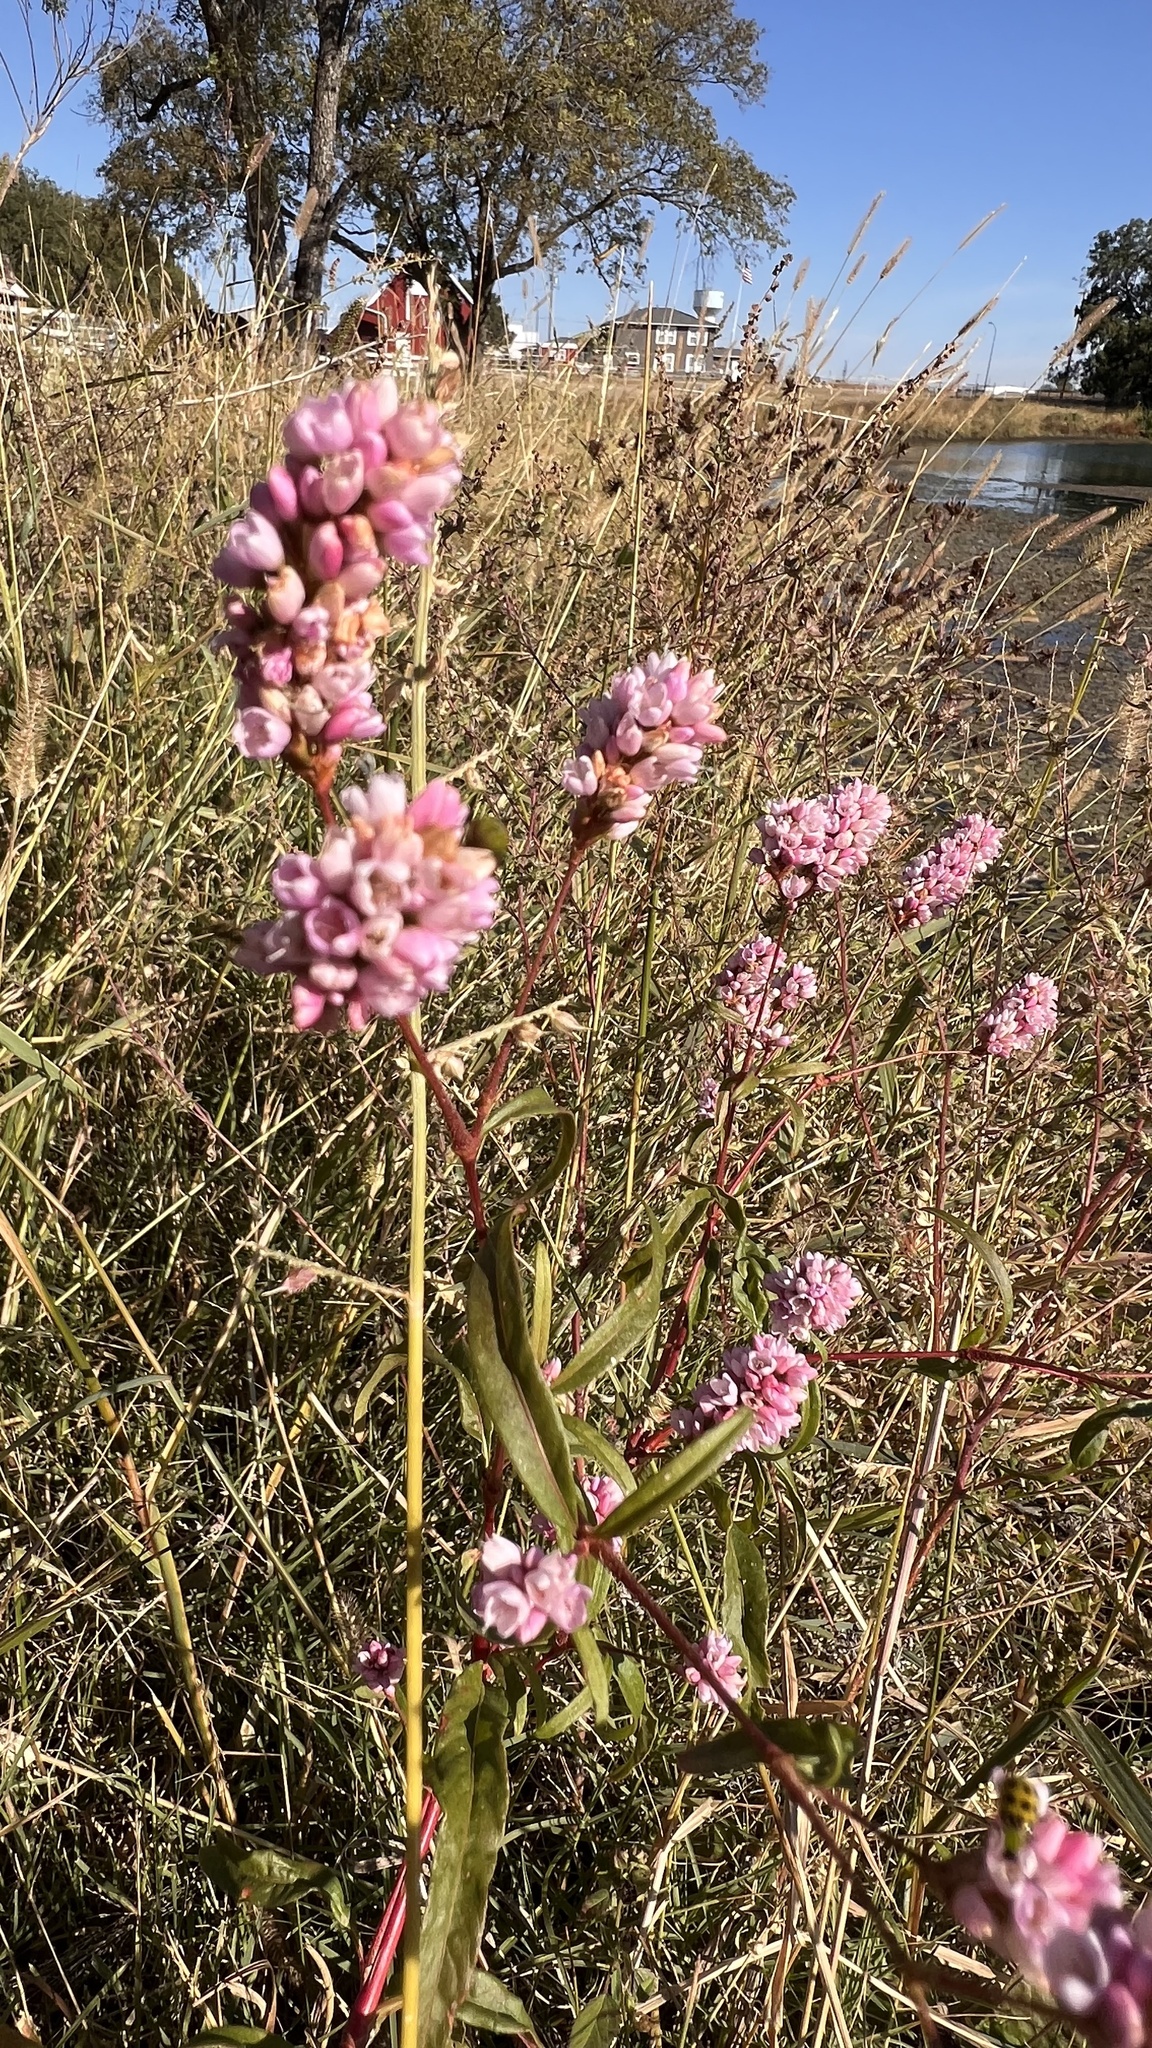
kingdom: Plantae
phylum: Tracheophyta
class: Magnoliopsida
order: Caryophyllales
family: Polygonaceae
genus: Persicaria
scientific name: Persicaria bicornis
